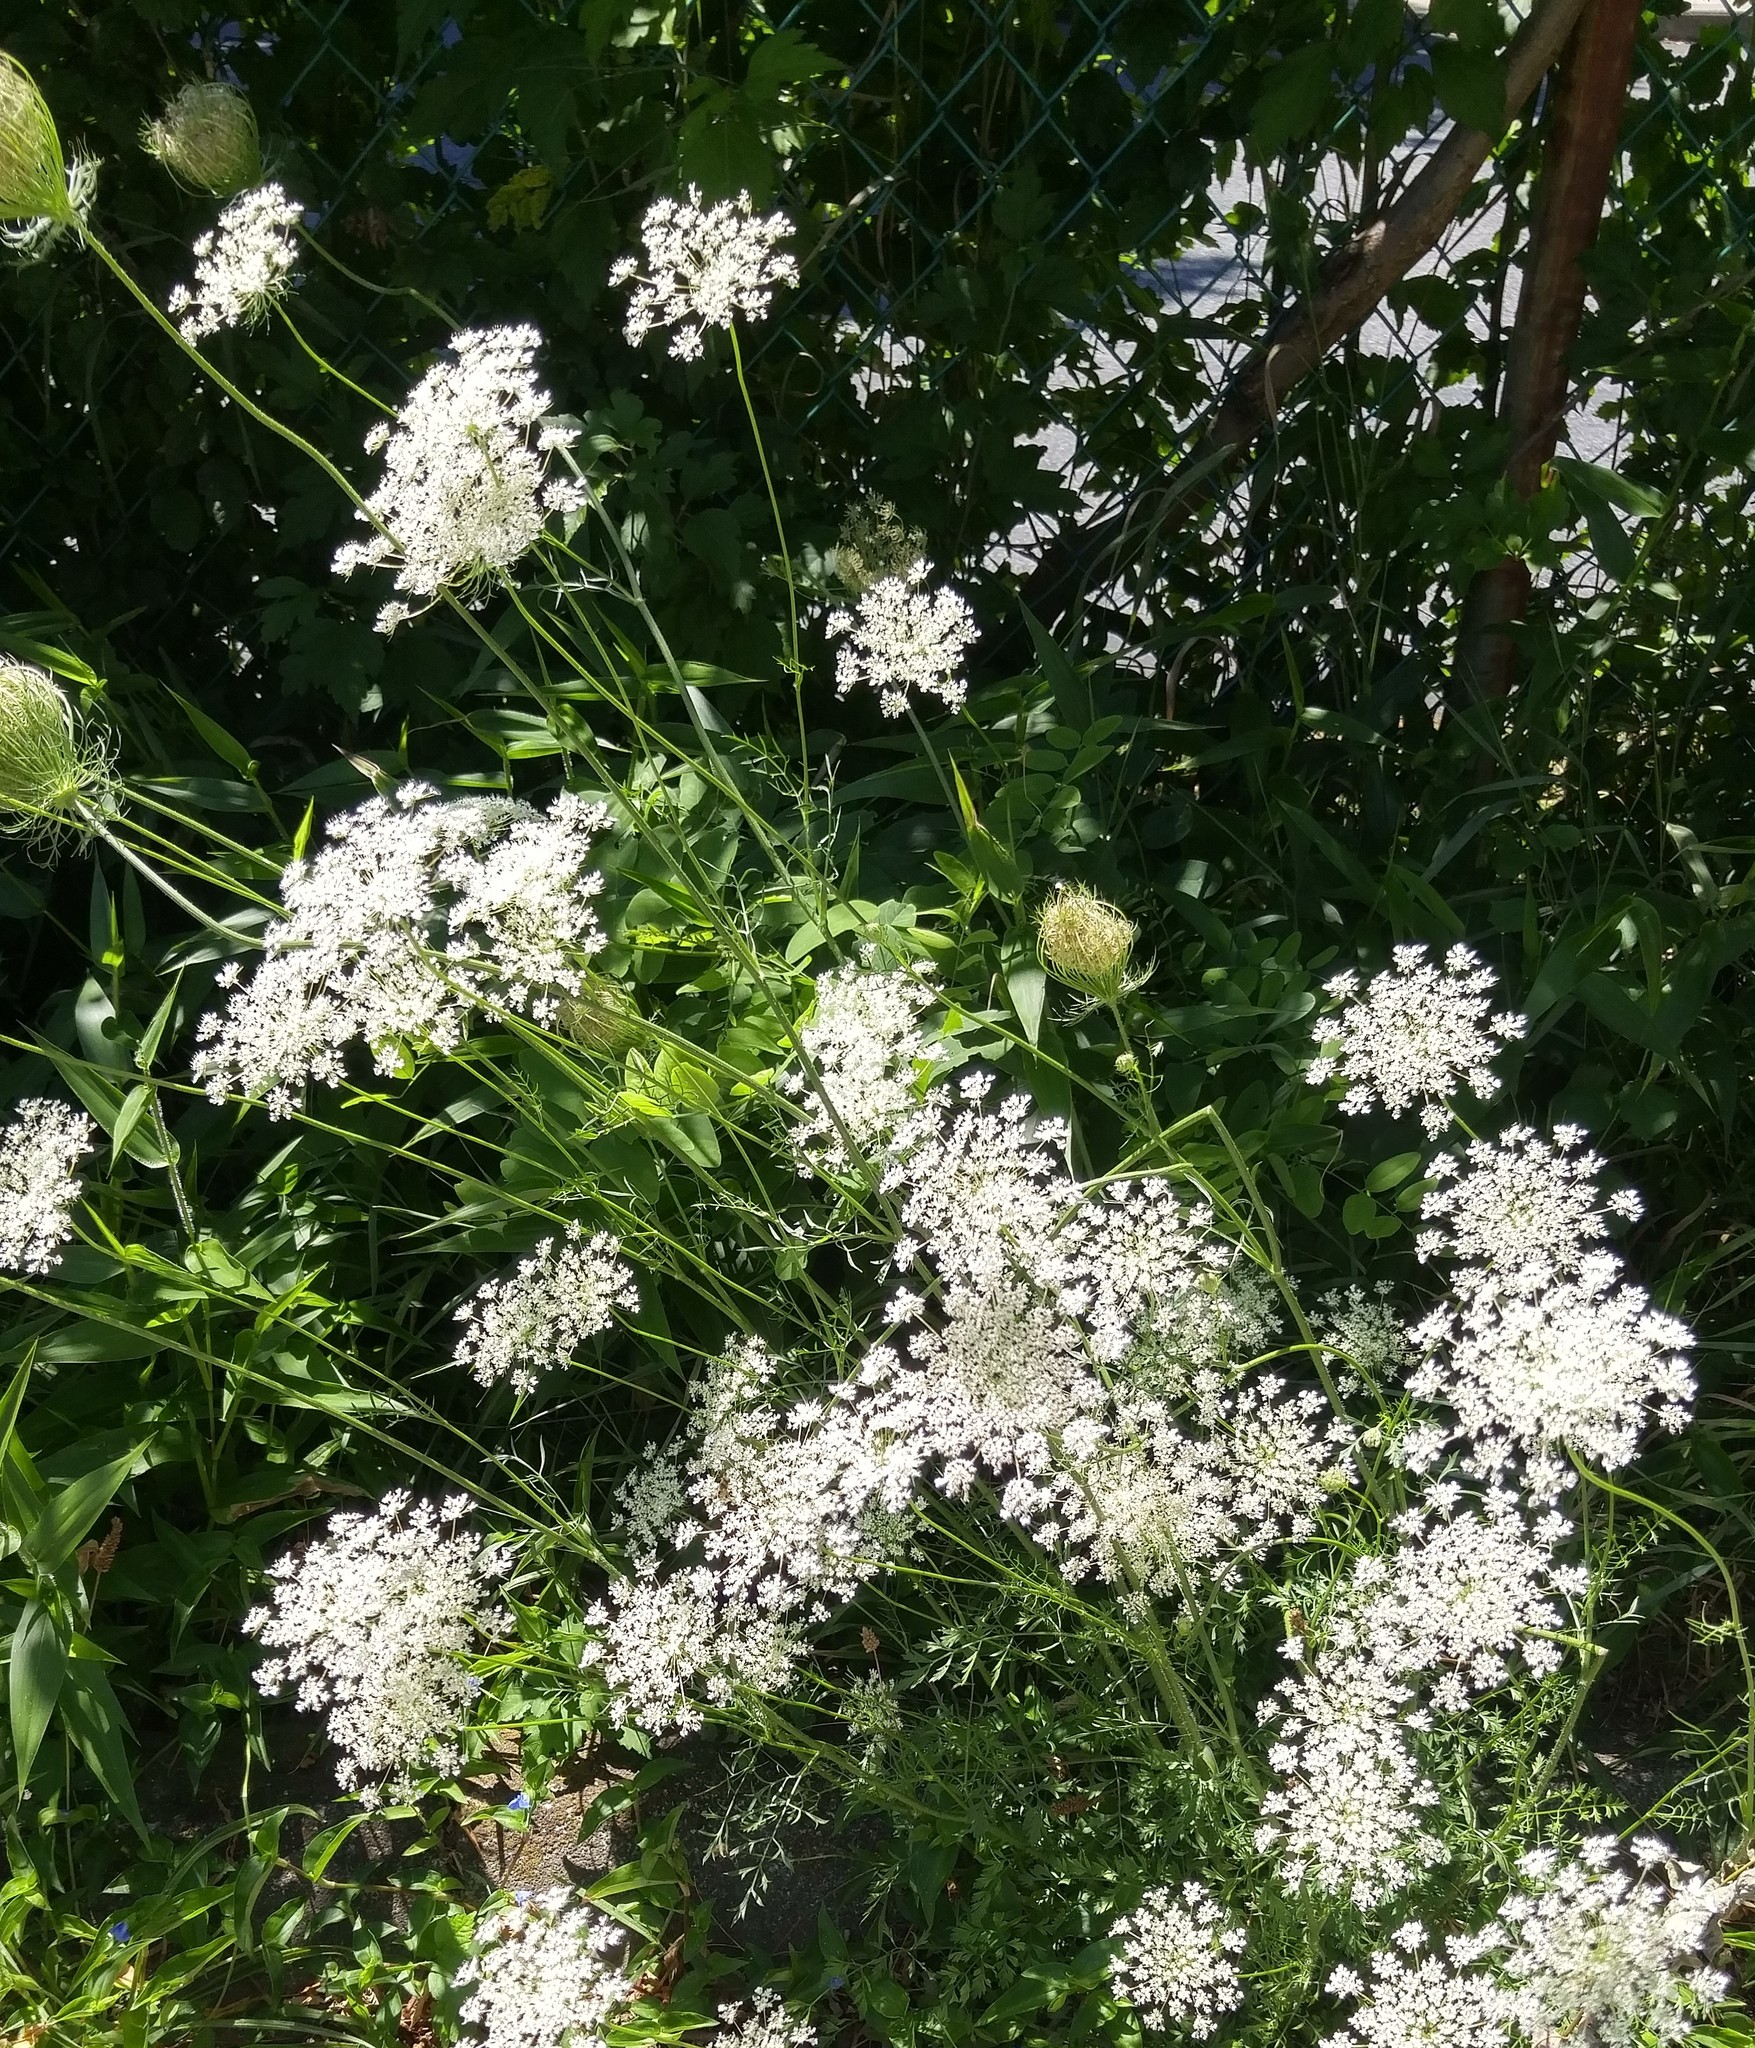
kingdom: Plantae
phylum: Tracheophyta
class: Magnoliopsida
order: Apiales
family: Apiaceae
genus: Daucus
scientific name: Daucus carota
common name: Wild carrot
